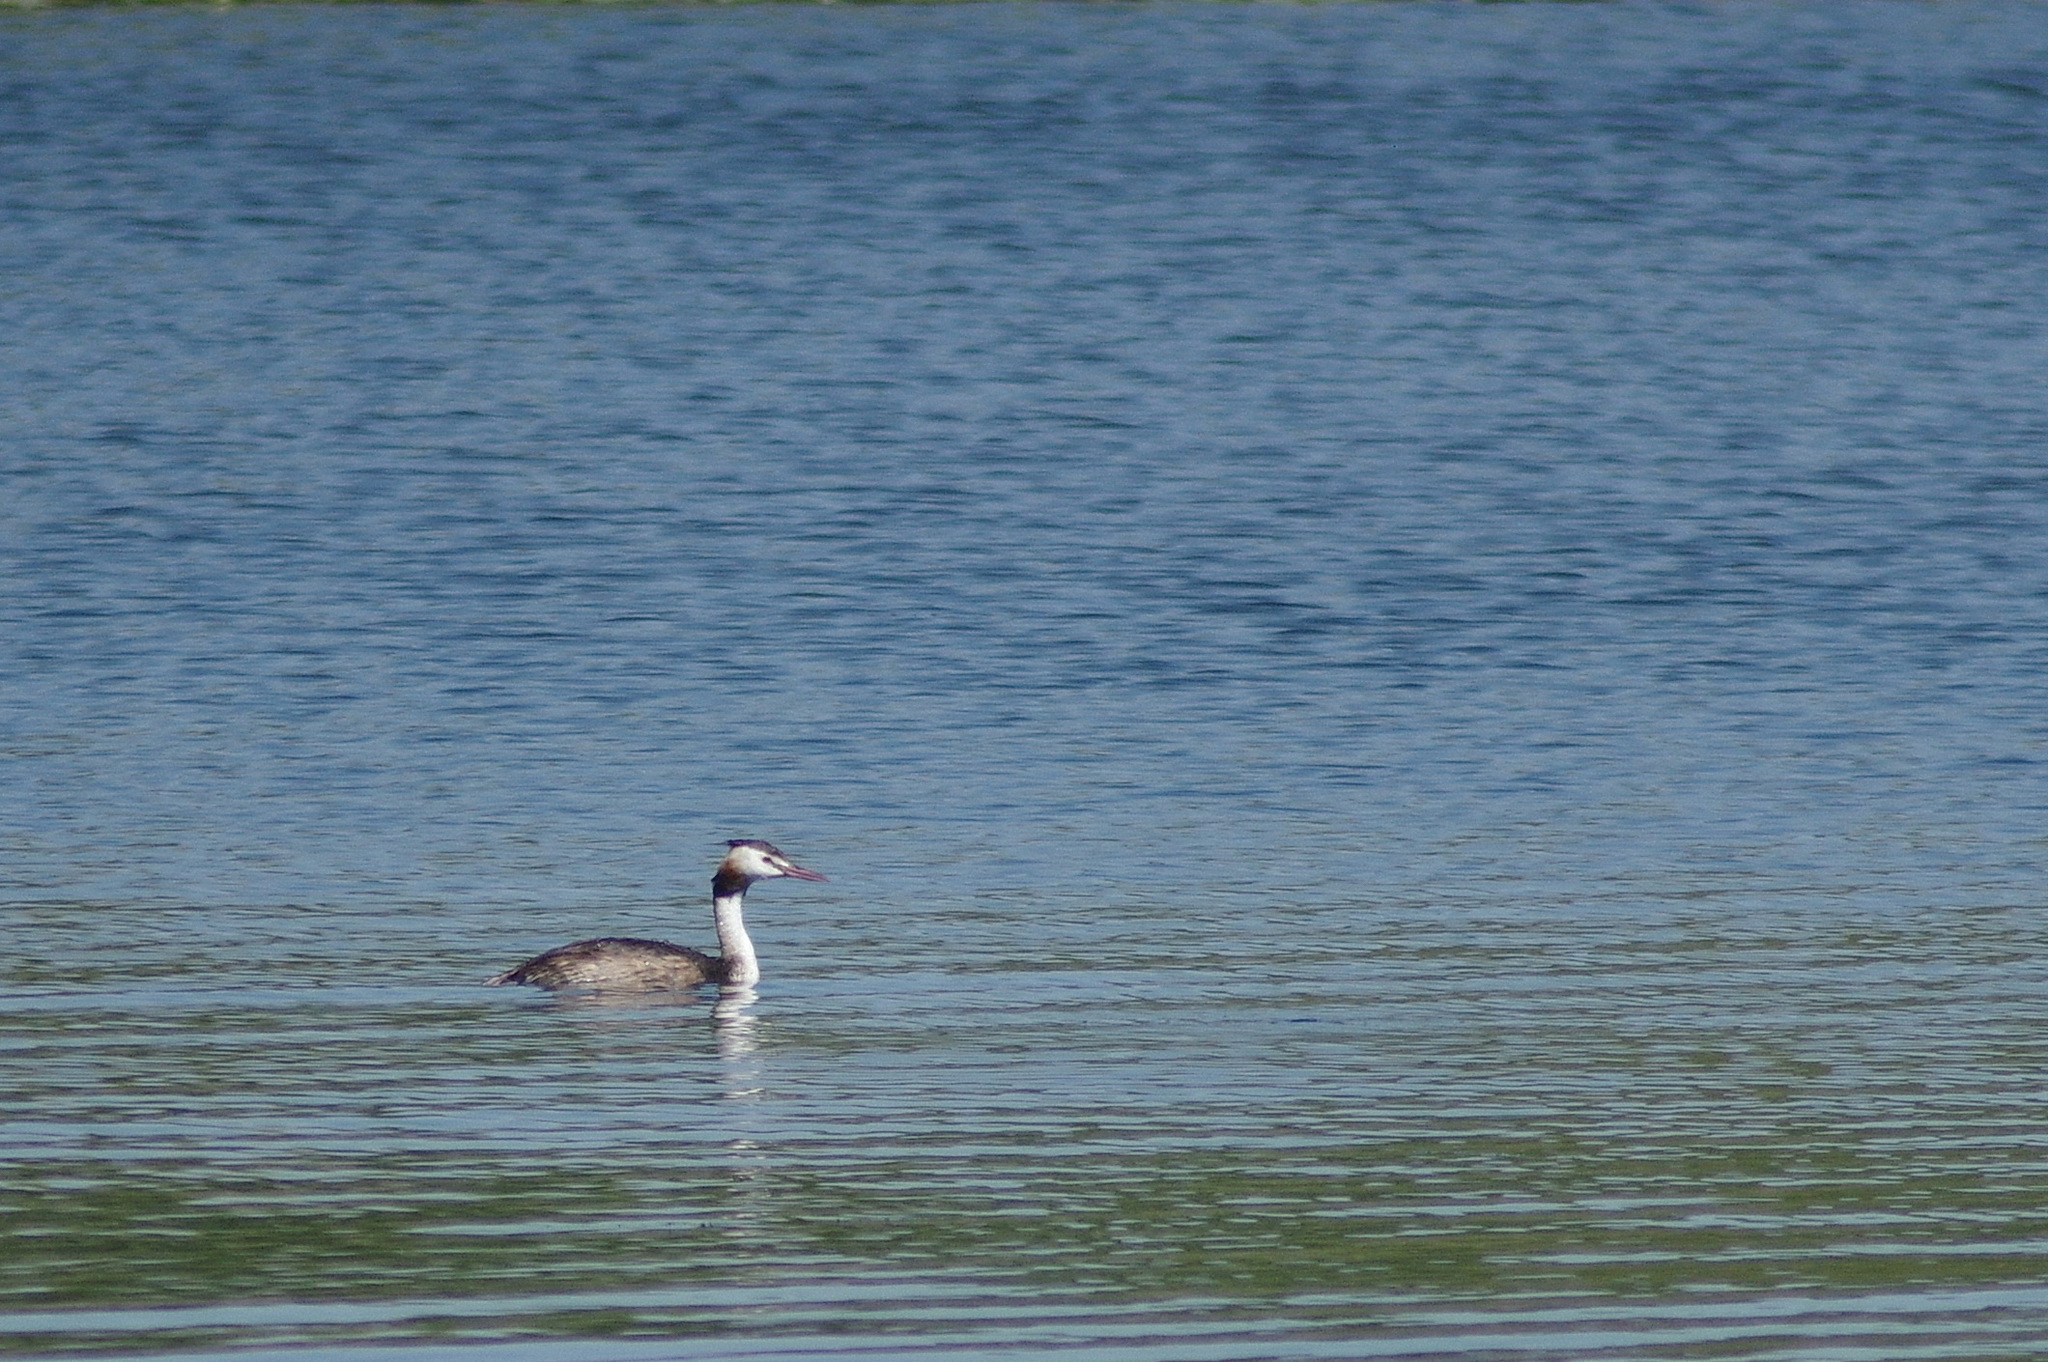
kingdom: Animalia
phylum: Chordata
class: Aves
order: Podicipediformes
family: Podicipedidae
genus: Podiceps
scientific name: Podiceps cristatus
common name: Great crested grebe
